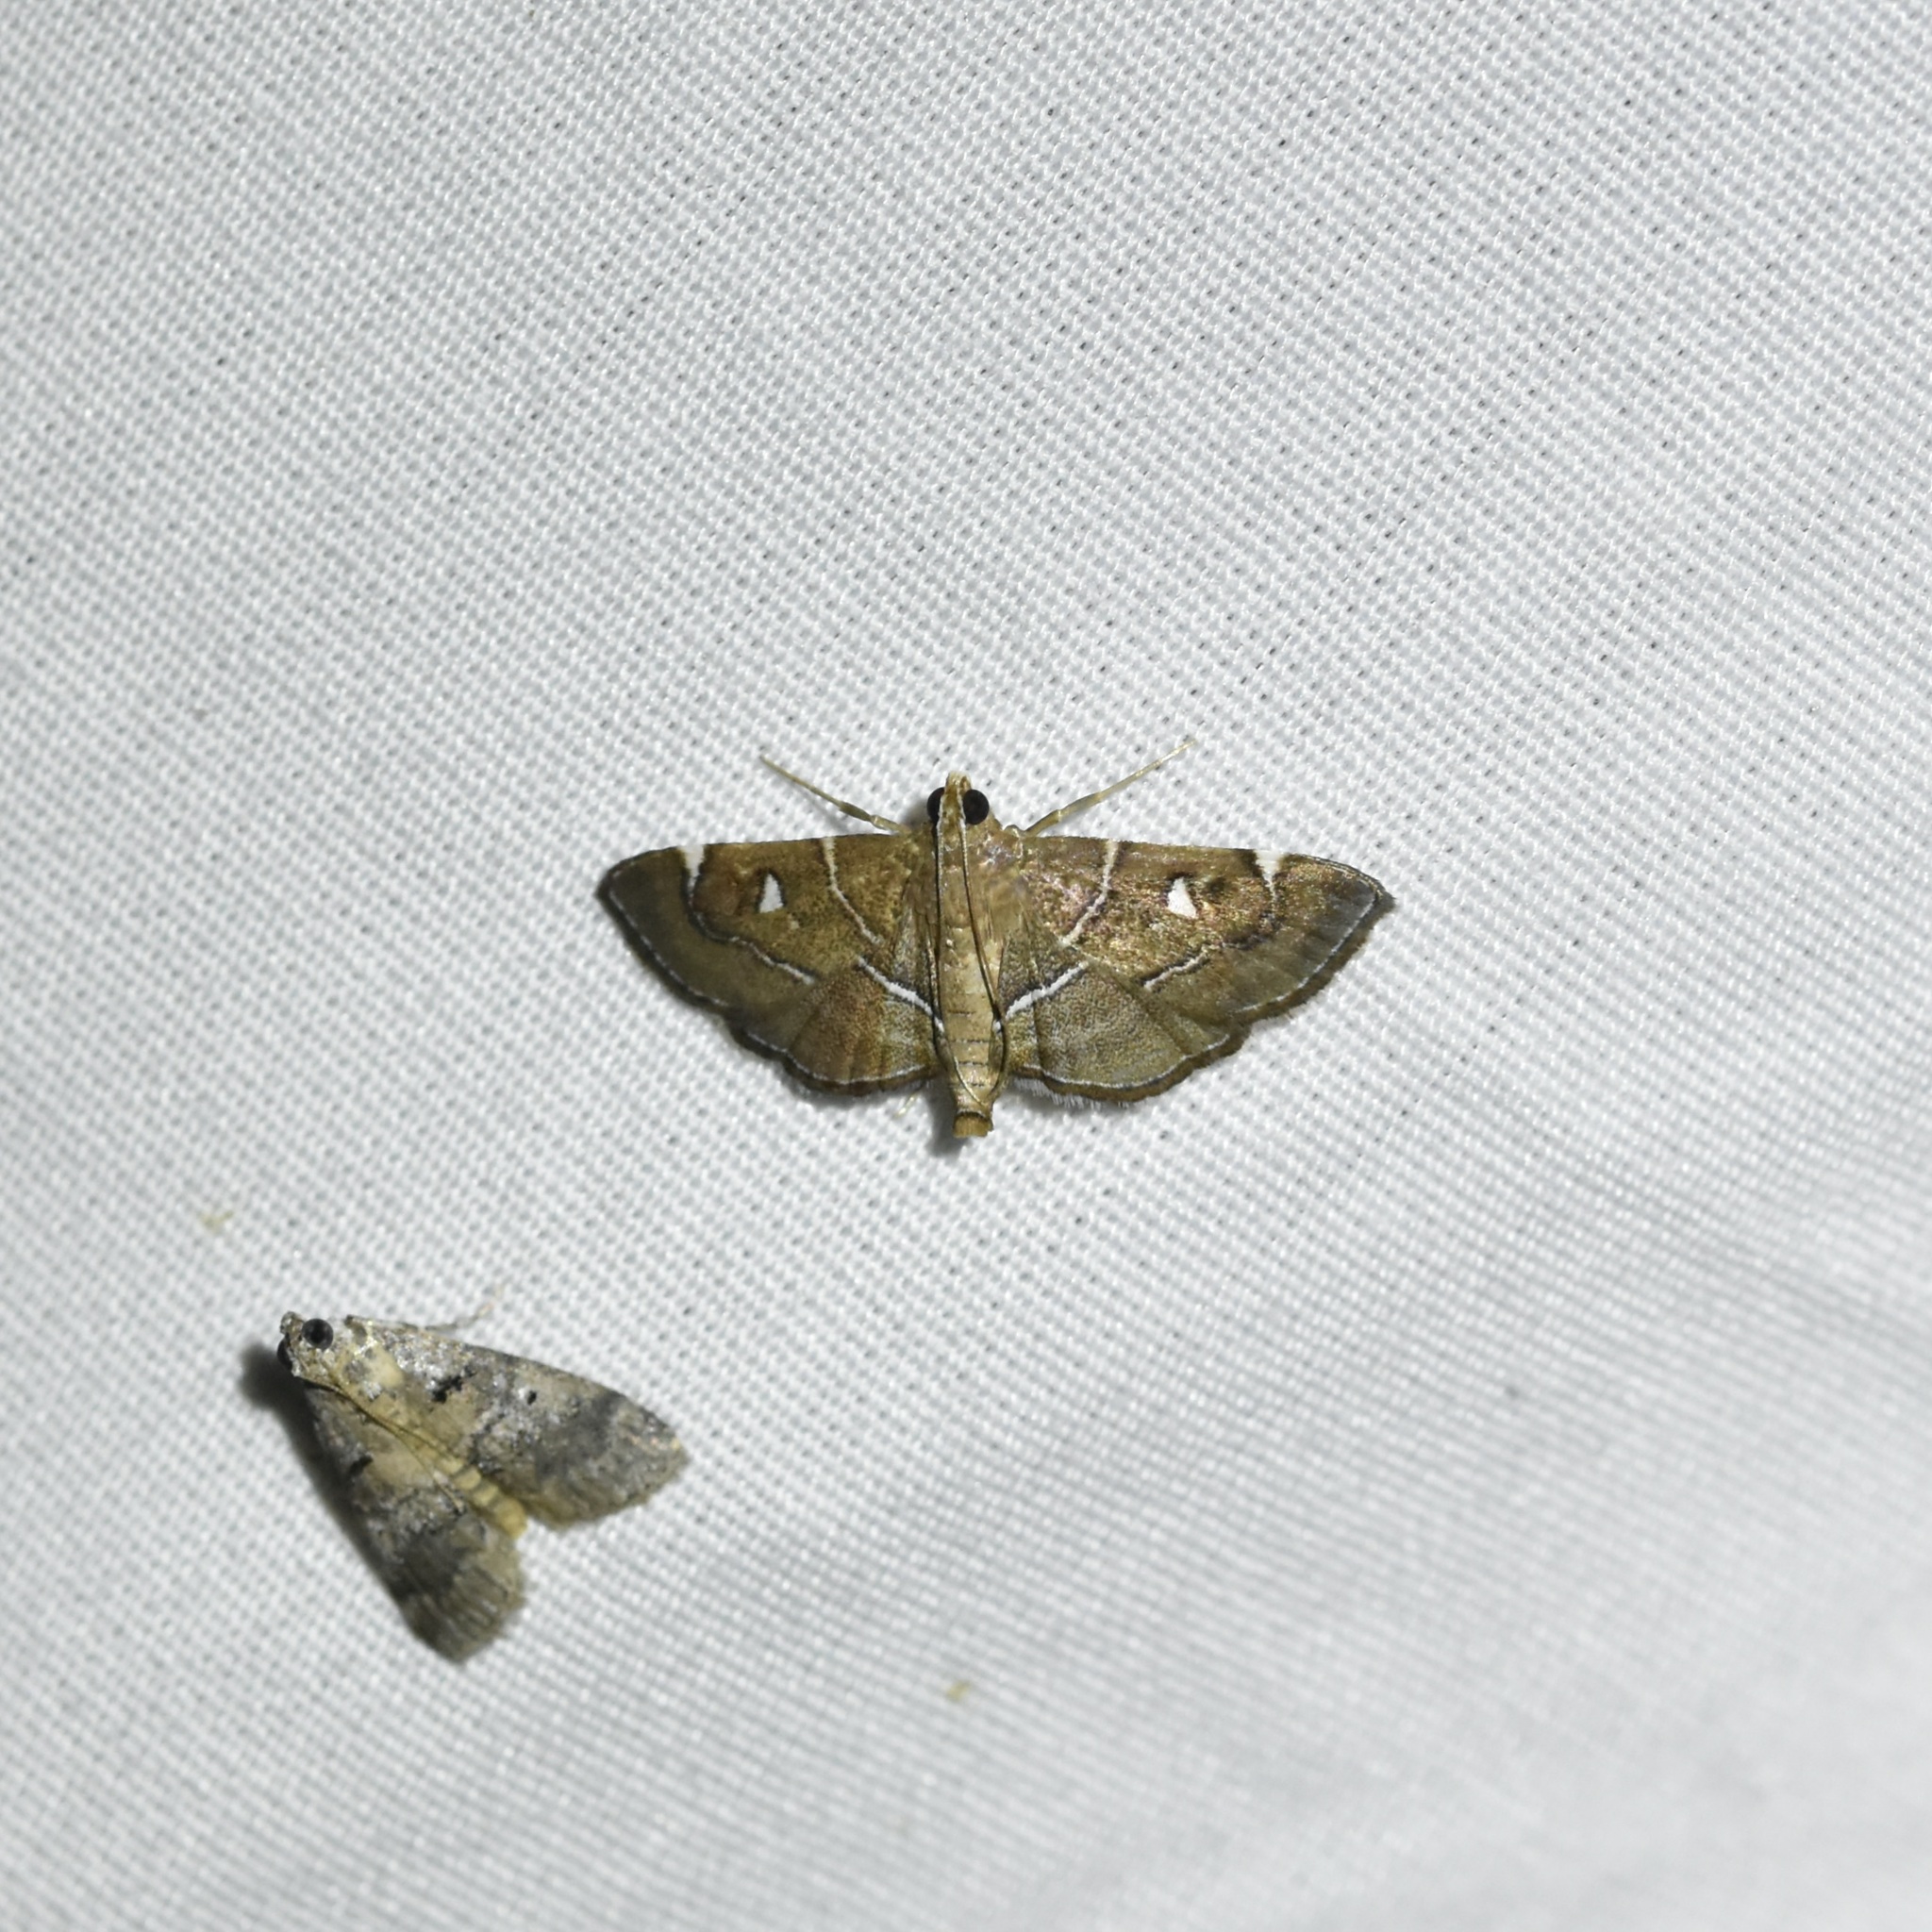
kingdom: Animalia
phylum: Arthropoda
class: Insecta
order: Lepidoptera
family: Crambidae
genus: Lamprosema
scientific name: Lamprosema victoriae
